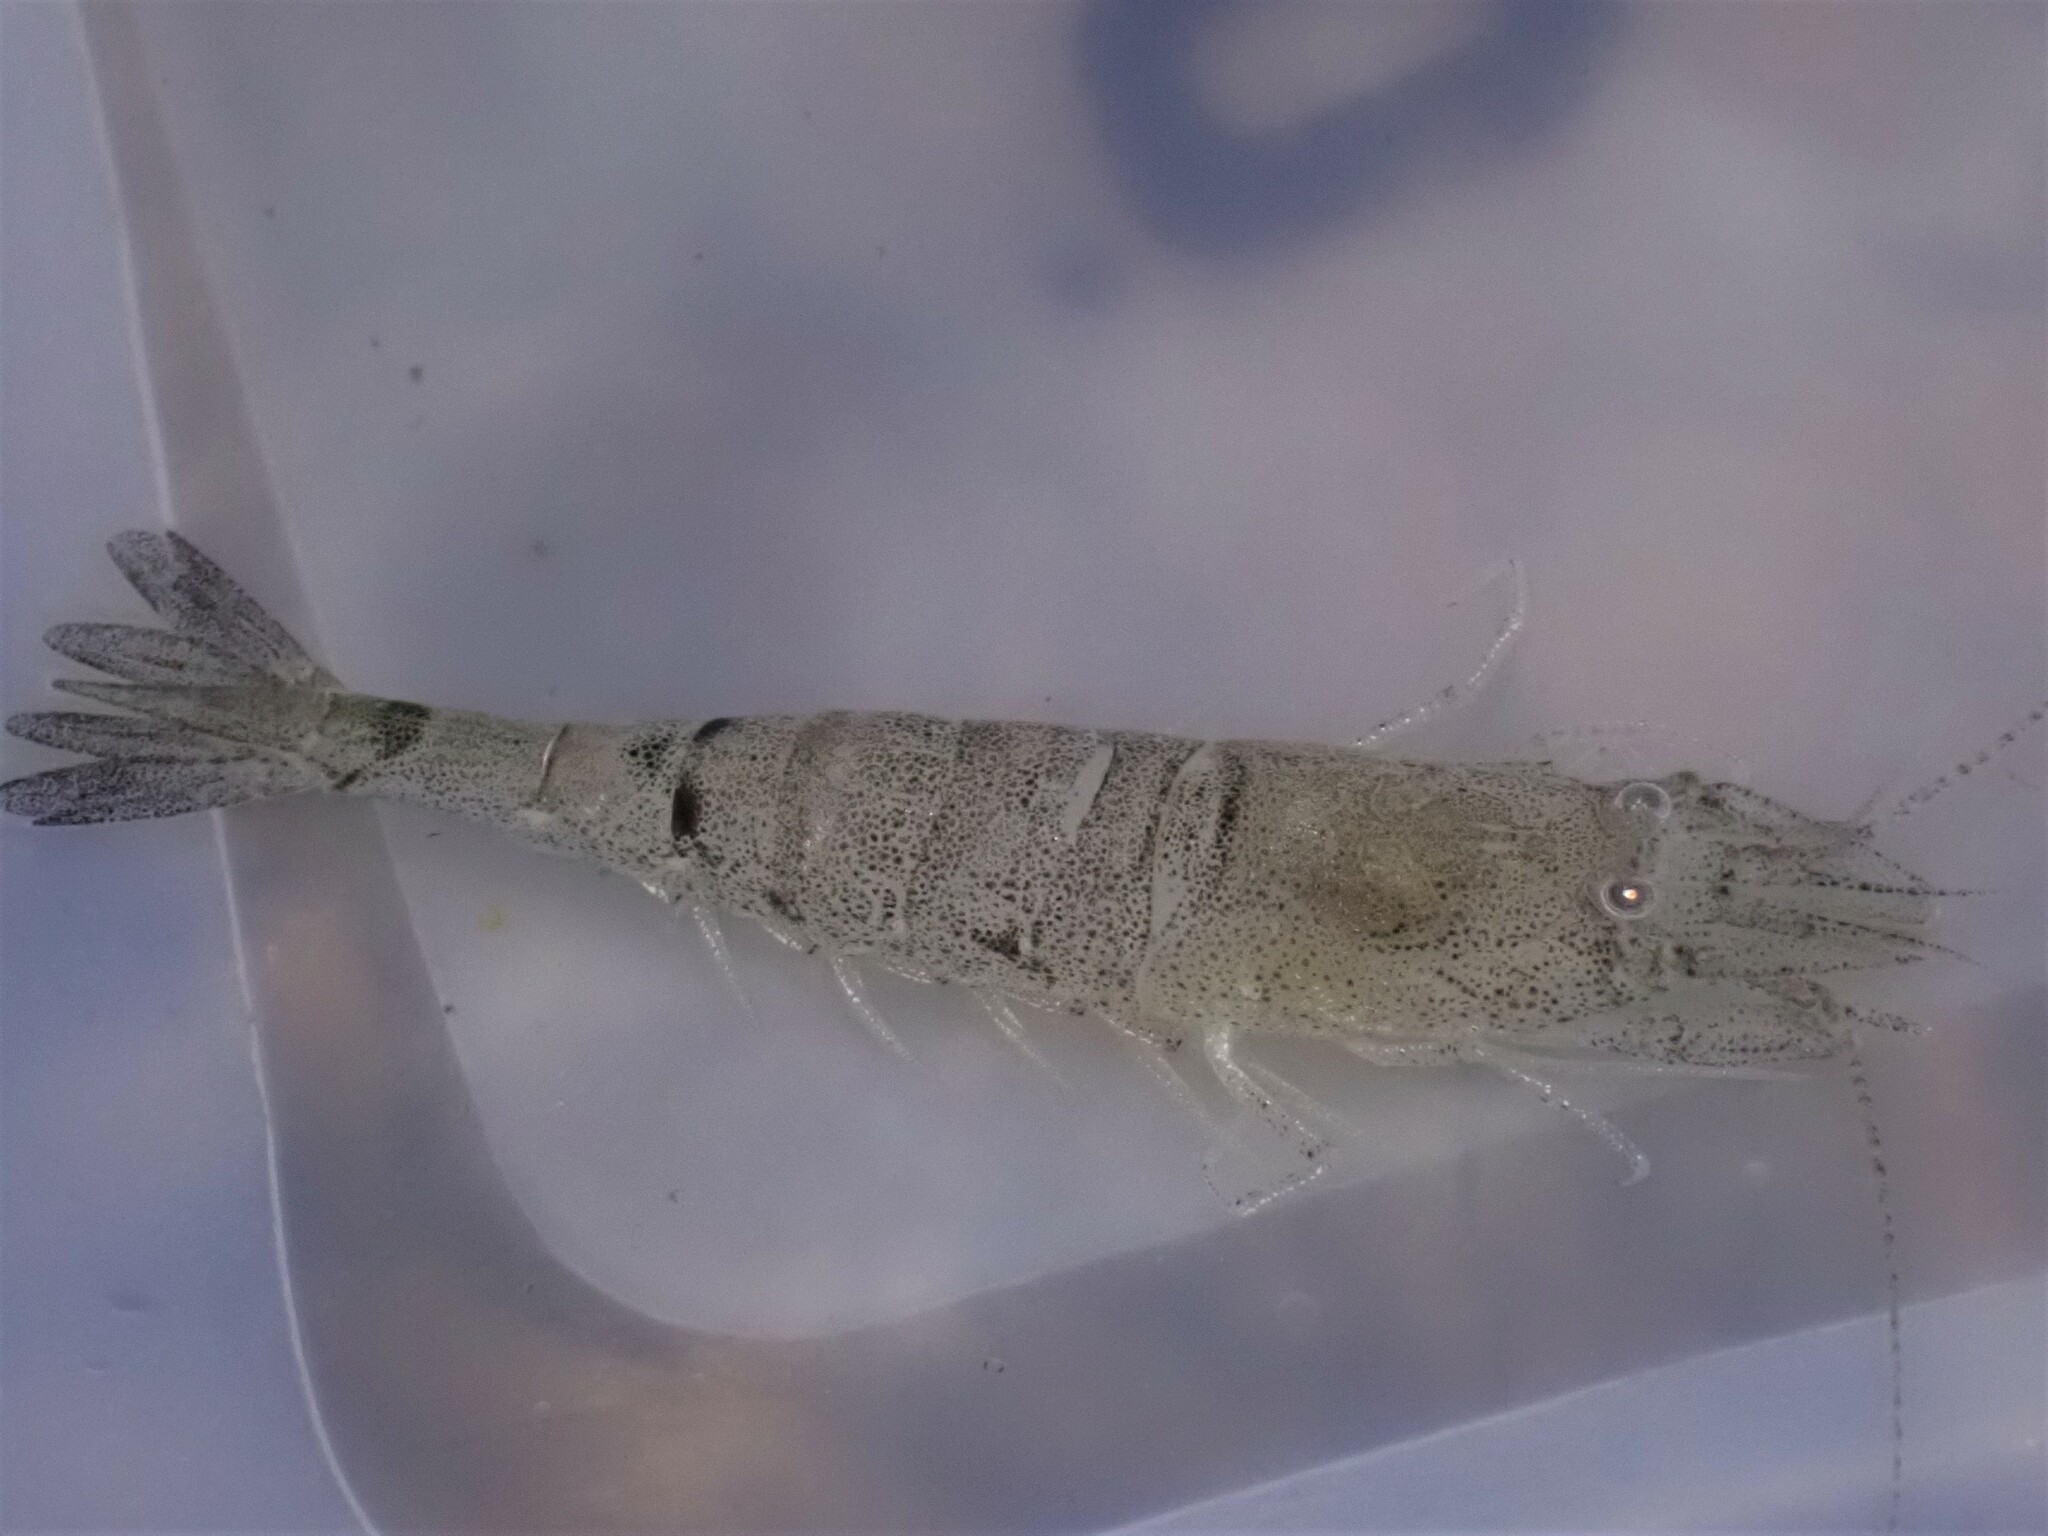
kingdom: Animalia
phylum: Arthropoda
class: Malacostraca
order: Decapoda
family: Crangonidae
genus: Crangon
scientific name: Crangon crangon
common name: Brown shrimp
